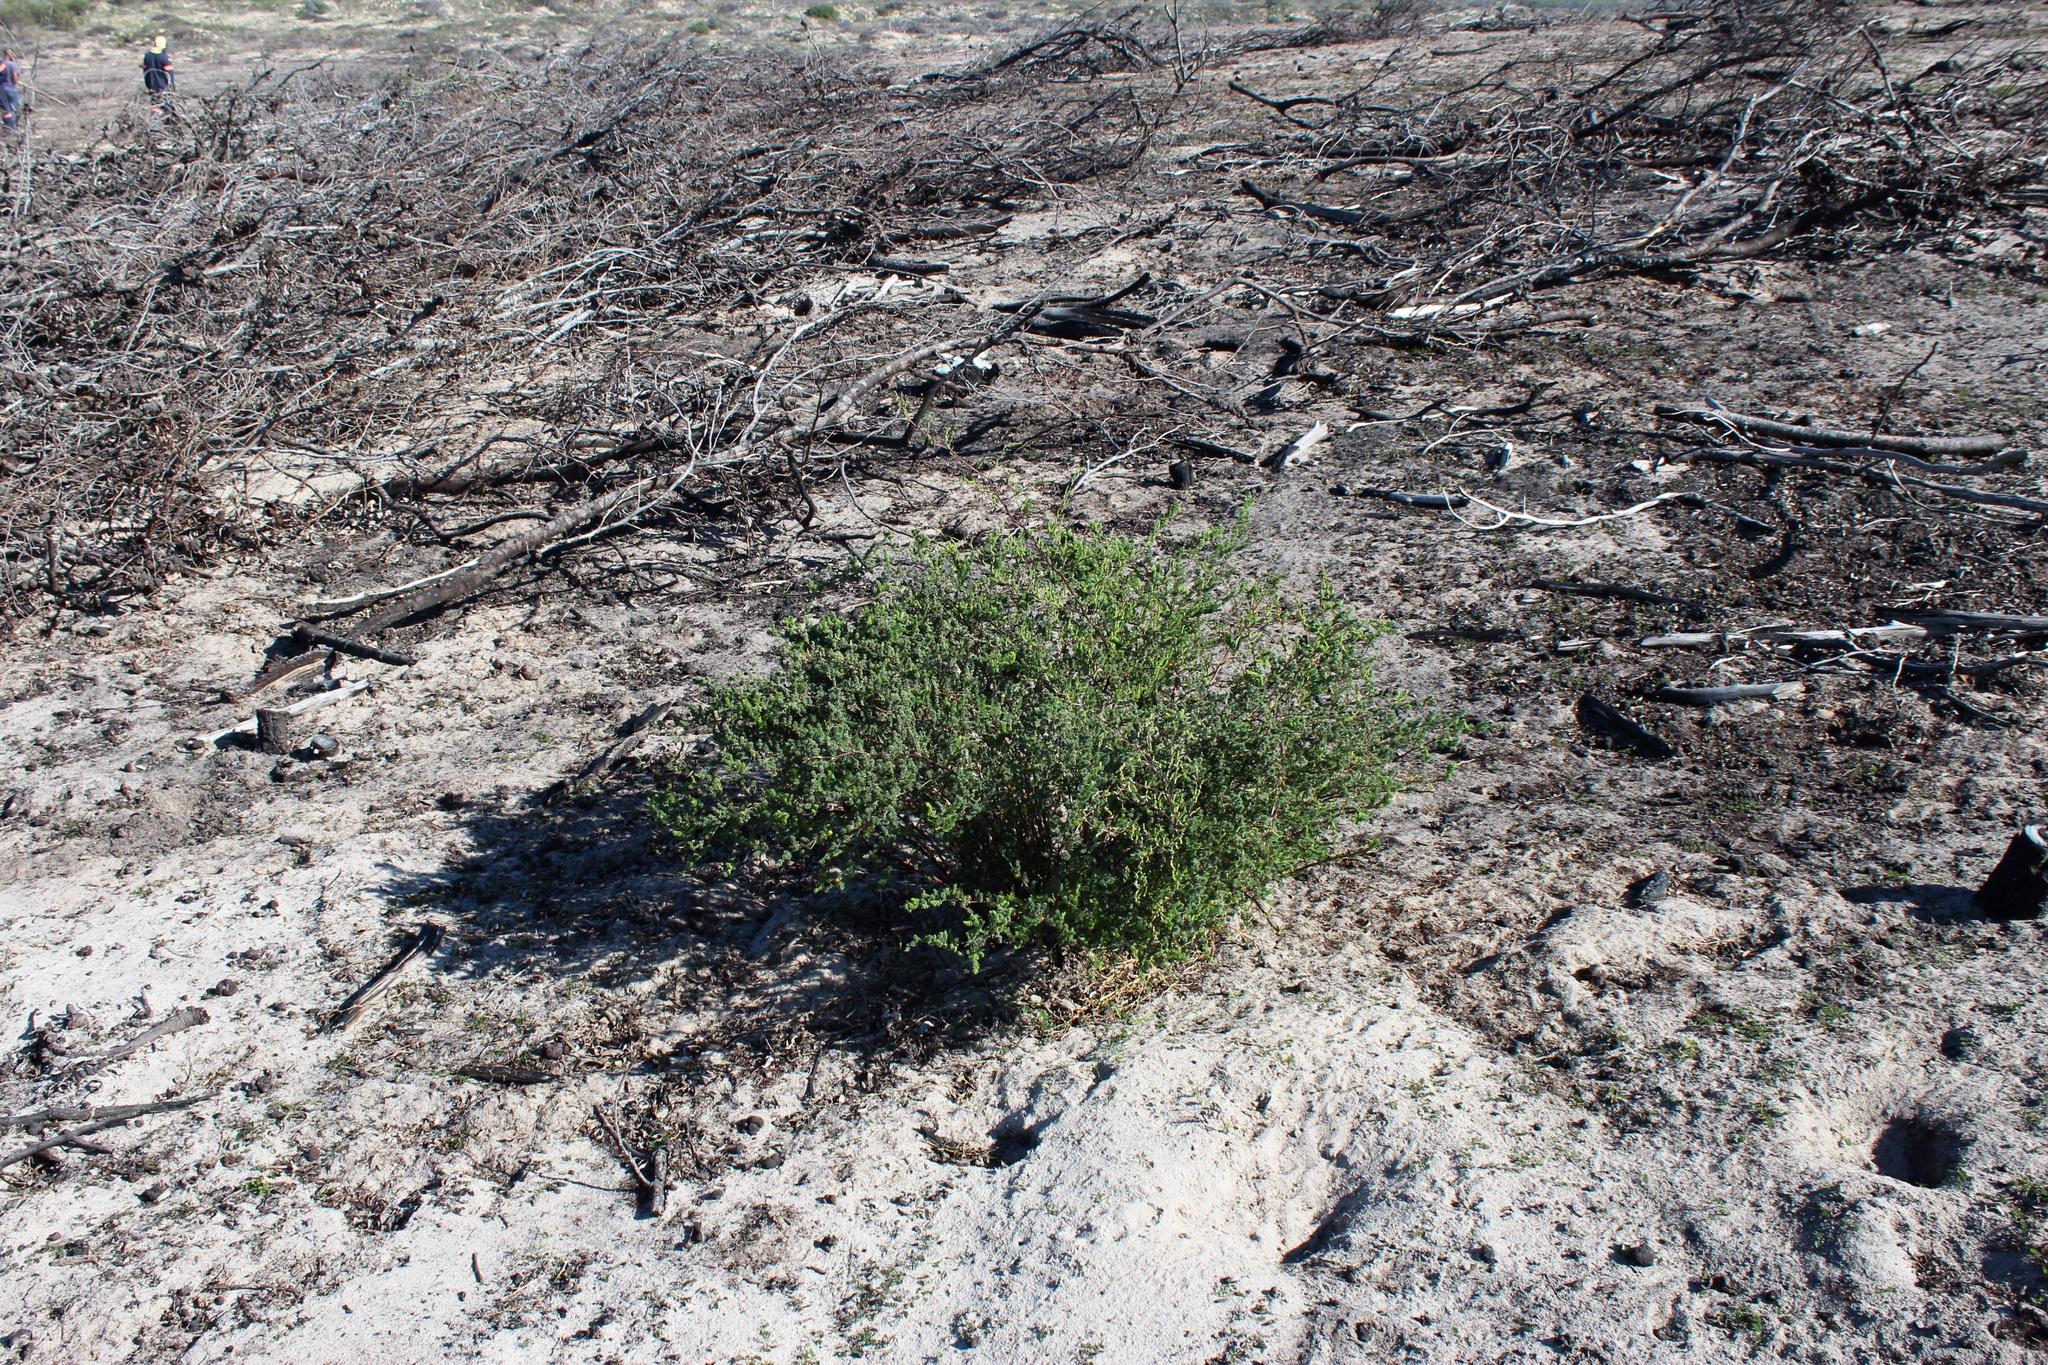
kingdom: Plantae
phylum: Tracheophyta
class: Liliopsida
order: Asparagales
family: Asparagaceae
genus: Asparagus
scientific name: Asparagus rubicundus
